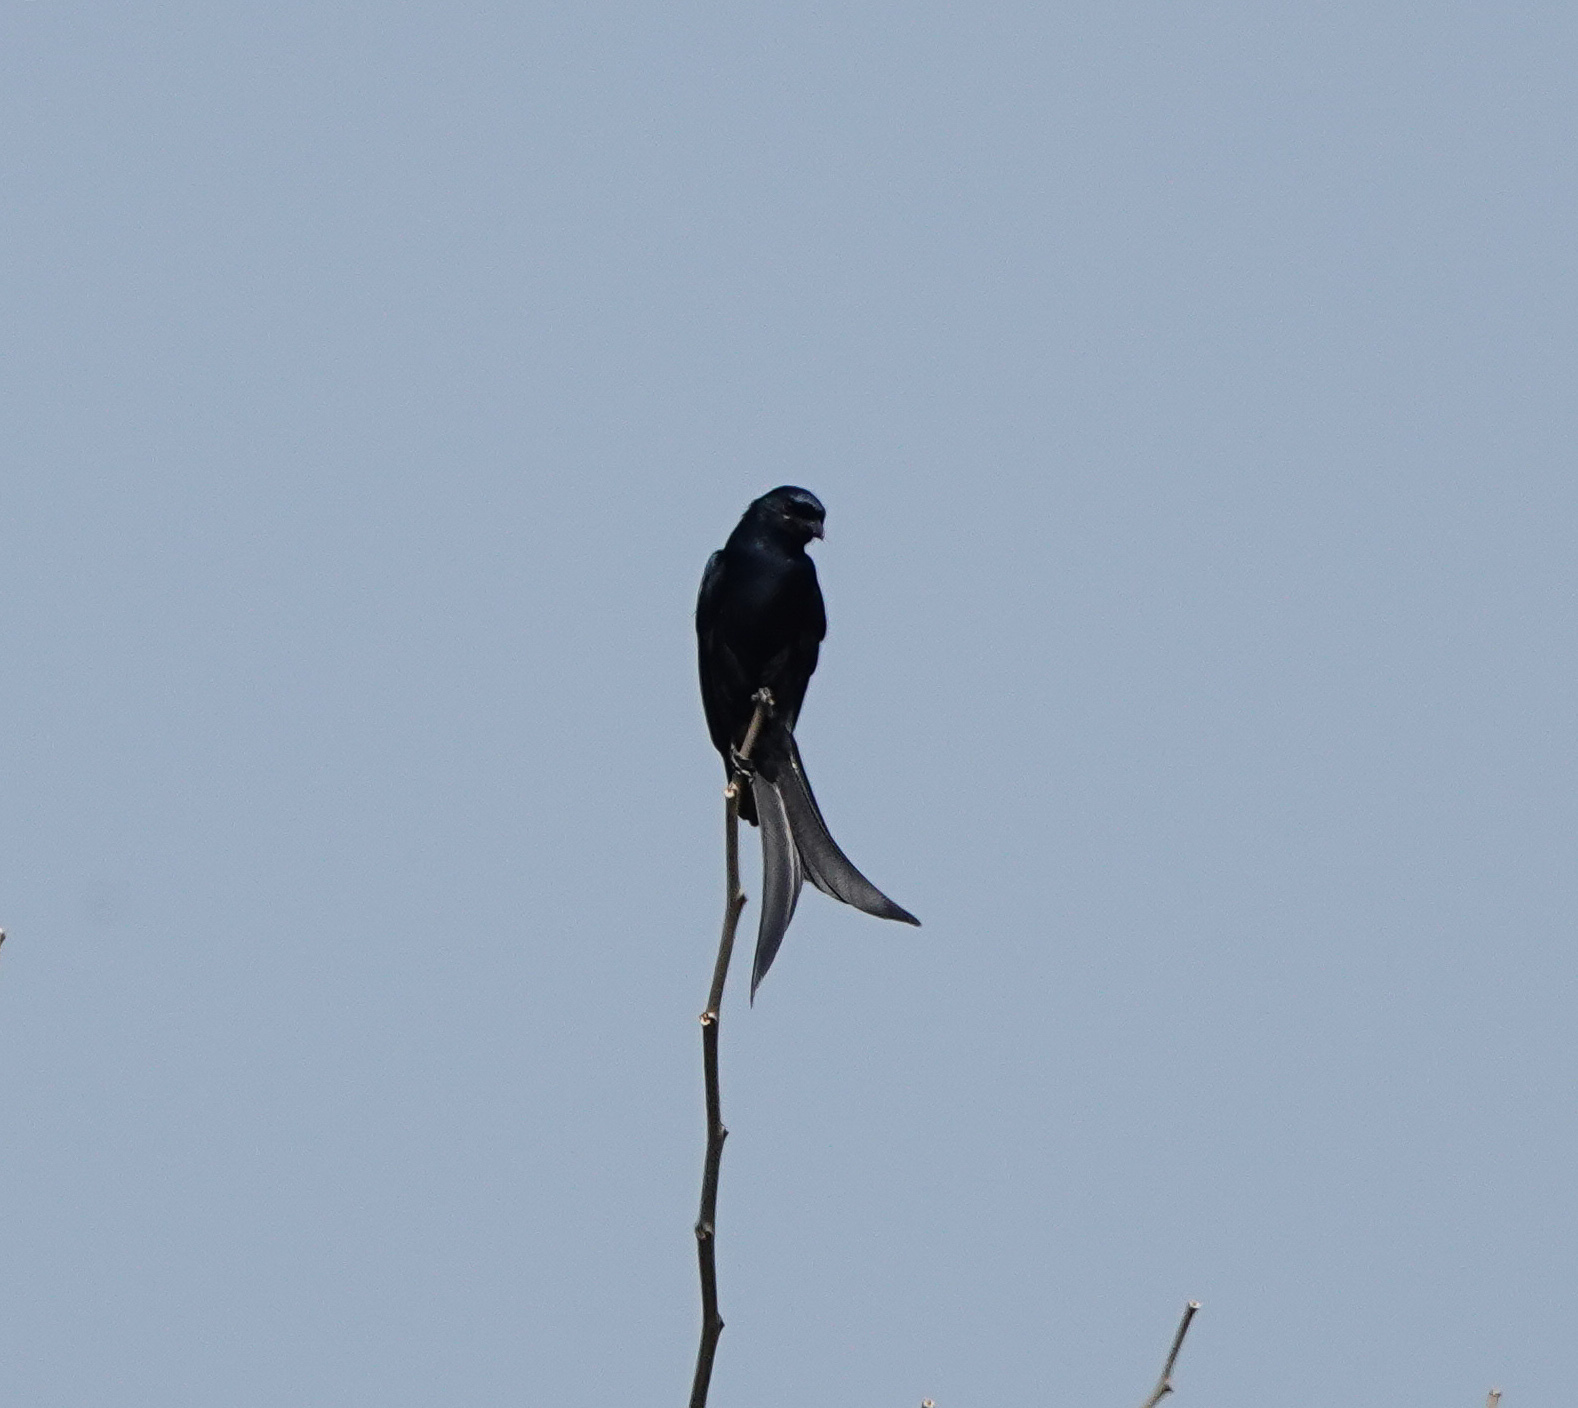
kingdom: Animalia
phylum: Chordata
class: Aves
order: Passeriformes
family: Dicruridae
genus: Dicrurus
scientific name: Dicrurus macrocercus
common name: Black drongo
